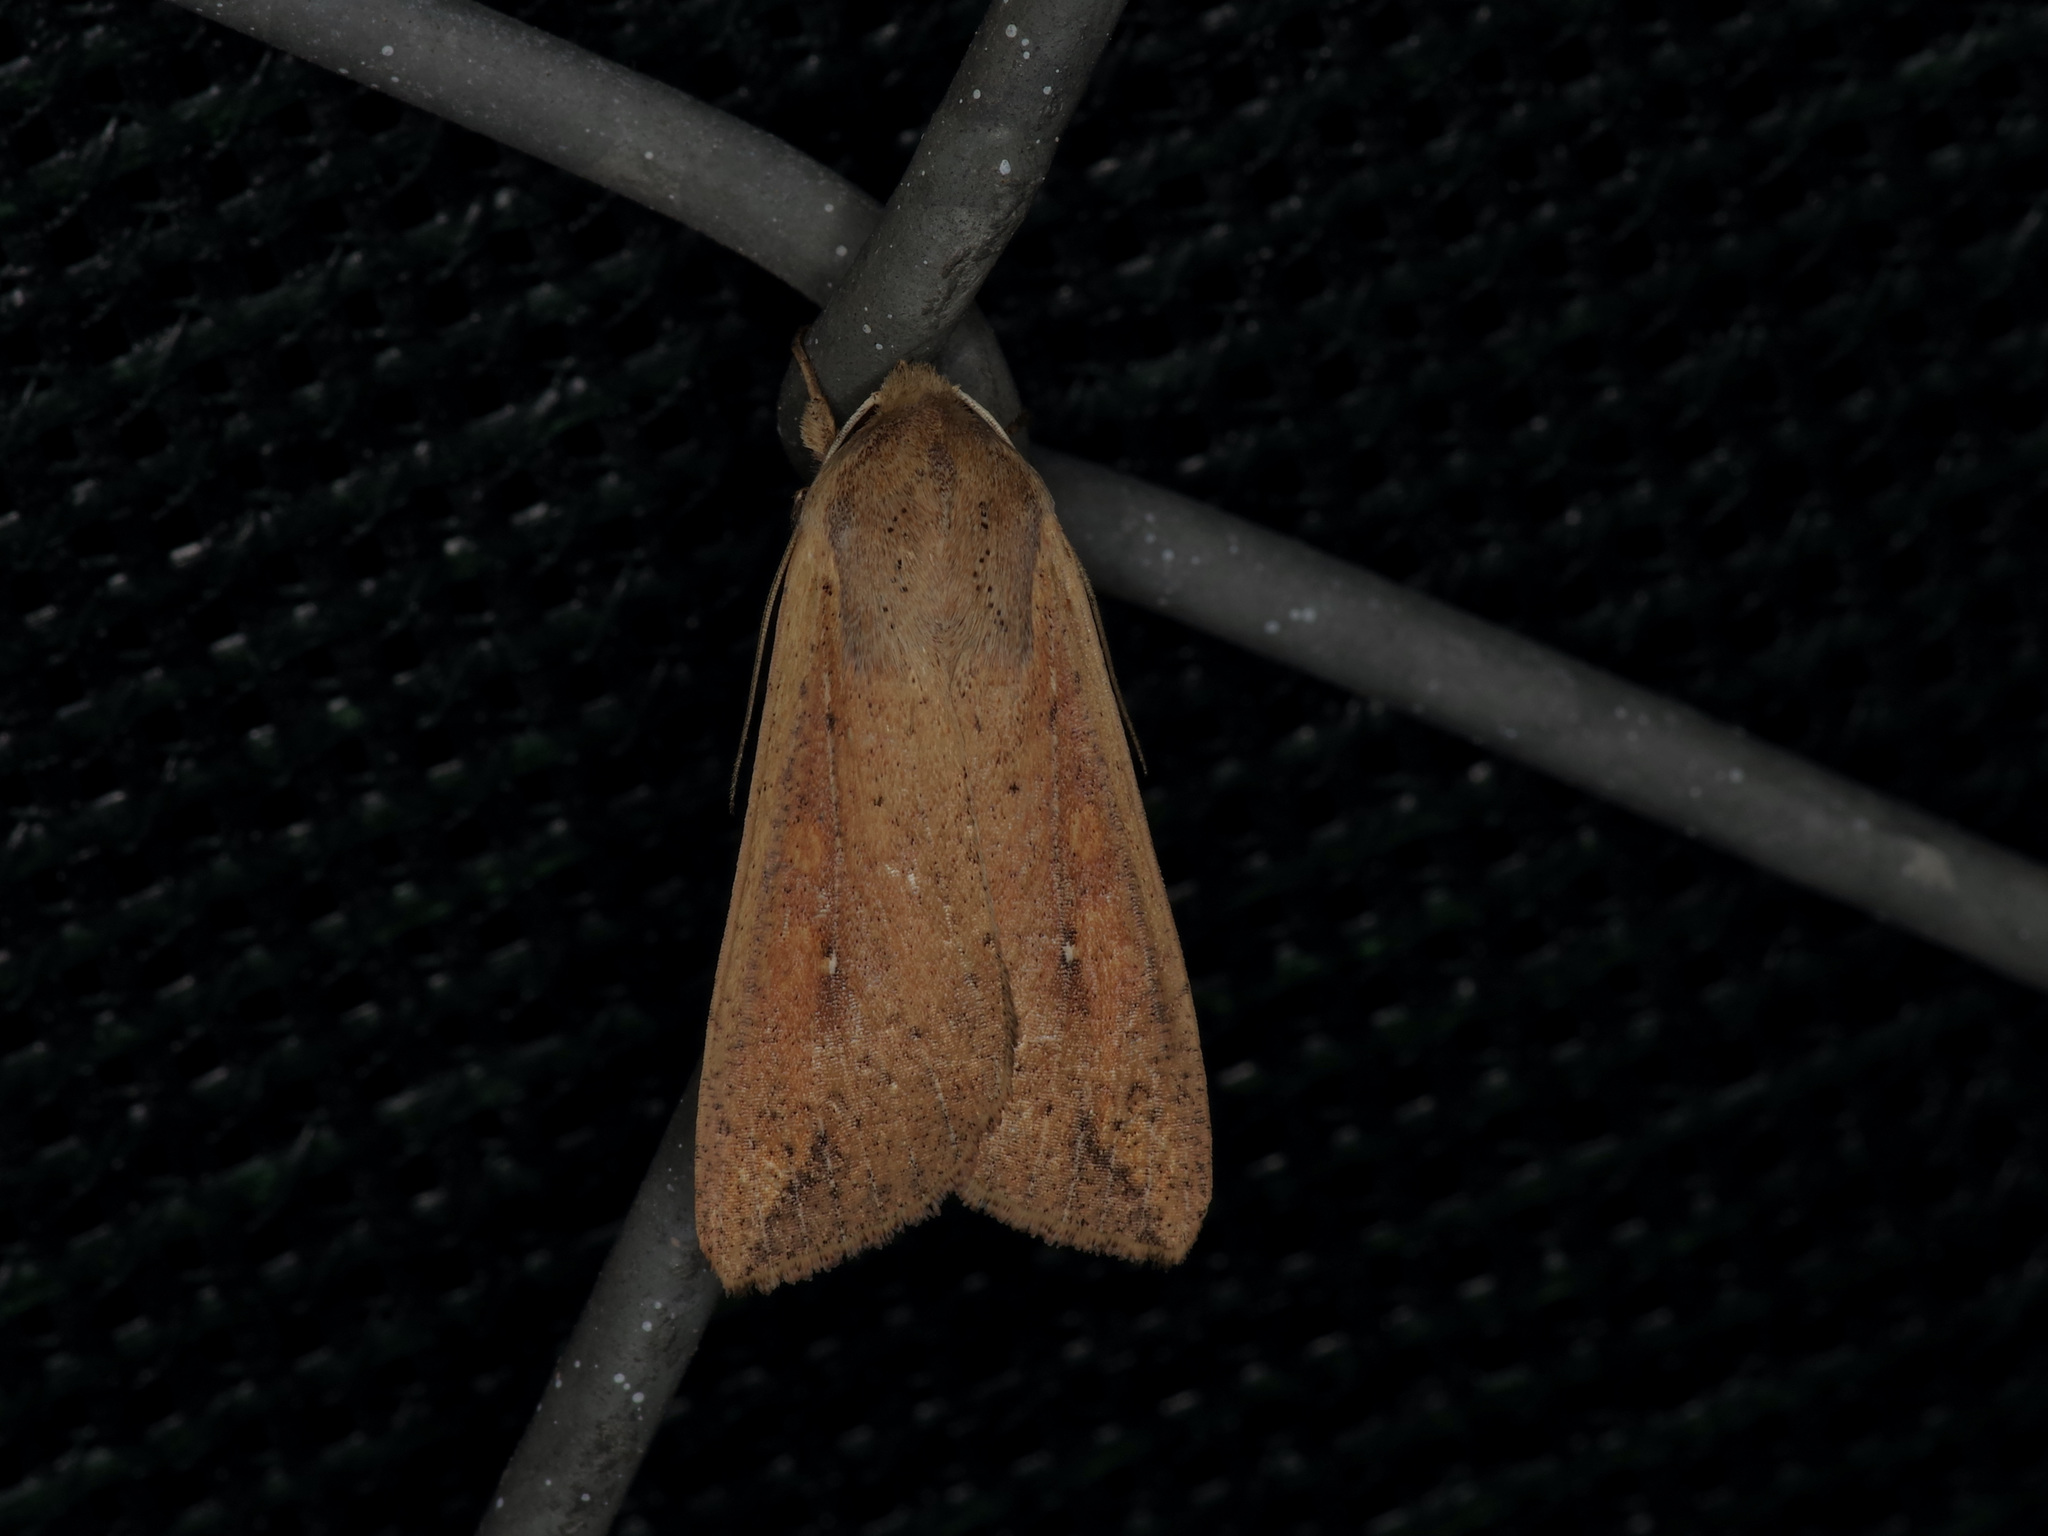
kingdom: Animalia
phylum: Arthropoda
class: Insecta
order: Lepidoptera
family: Noctuidae
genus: Mythimna
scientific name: Mythimna unipuncta
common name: White-speck
